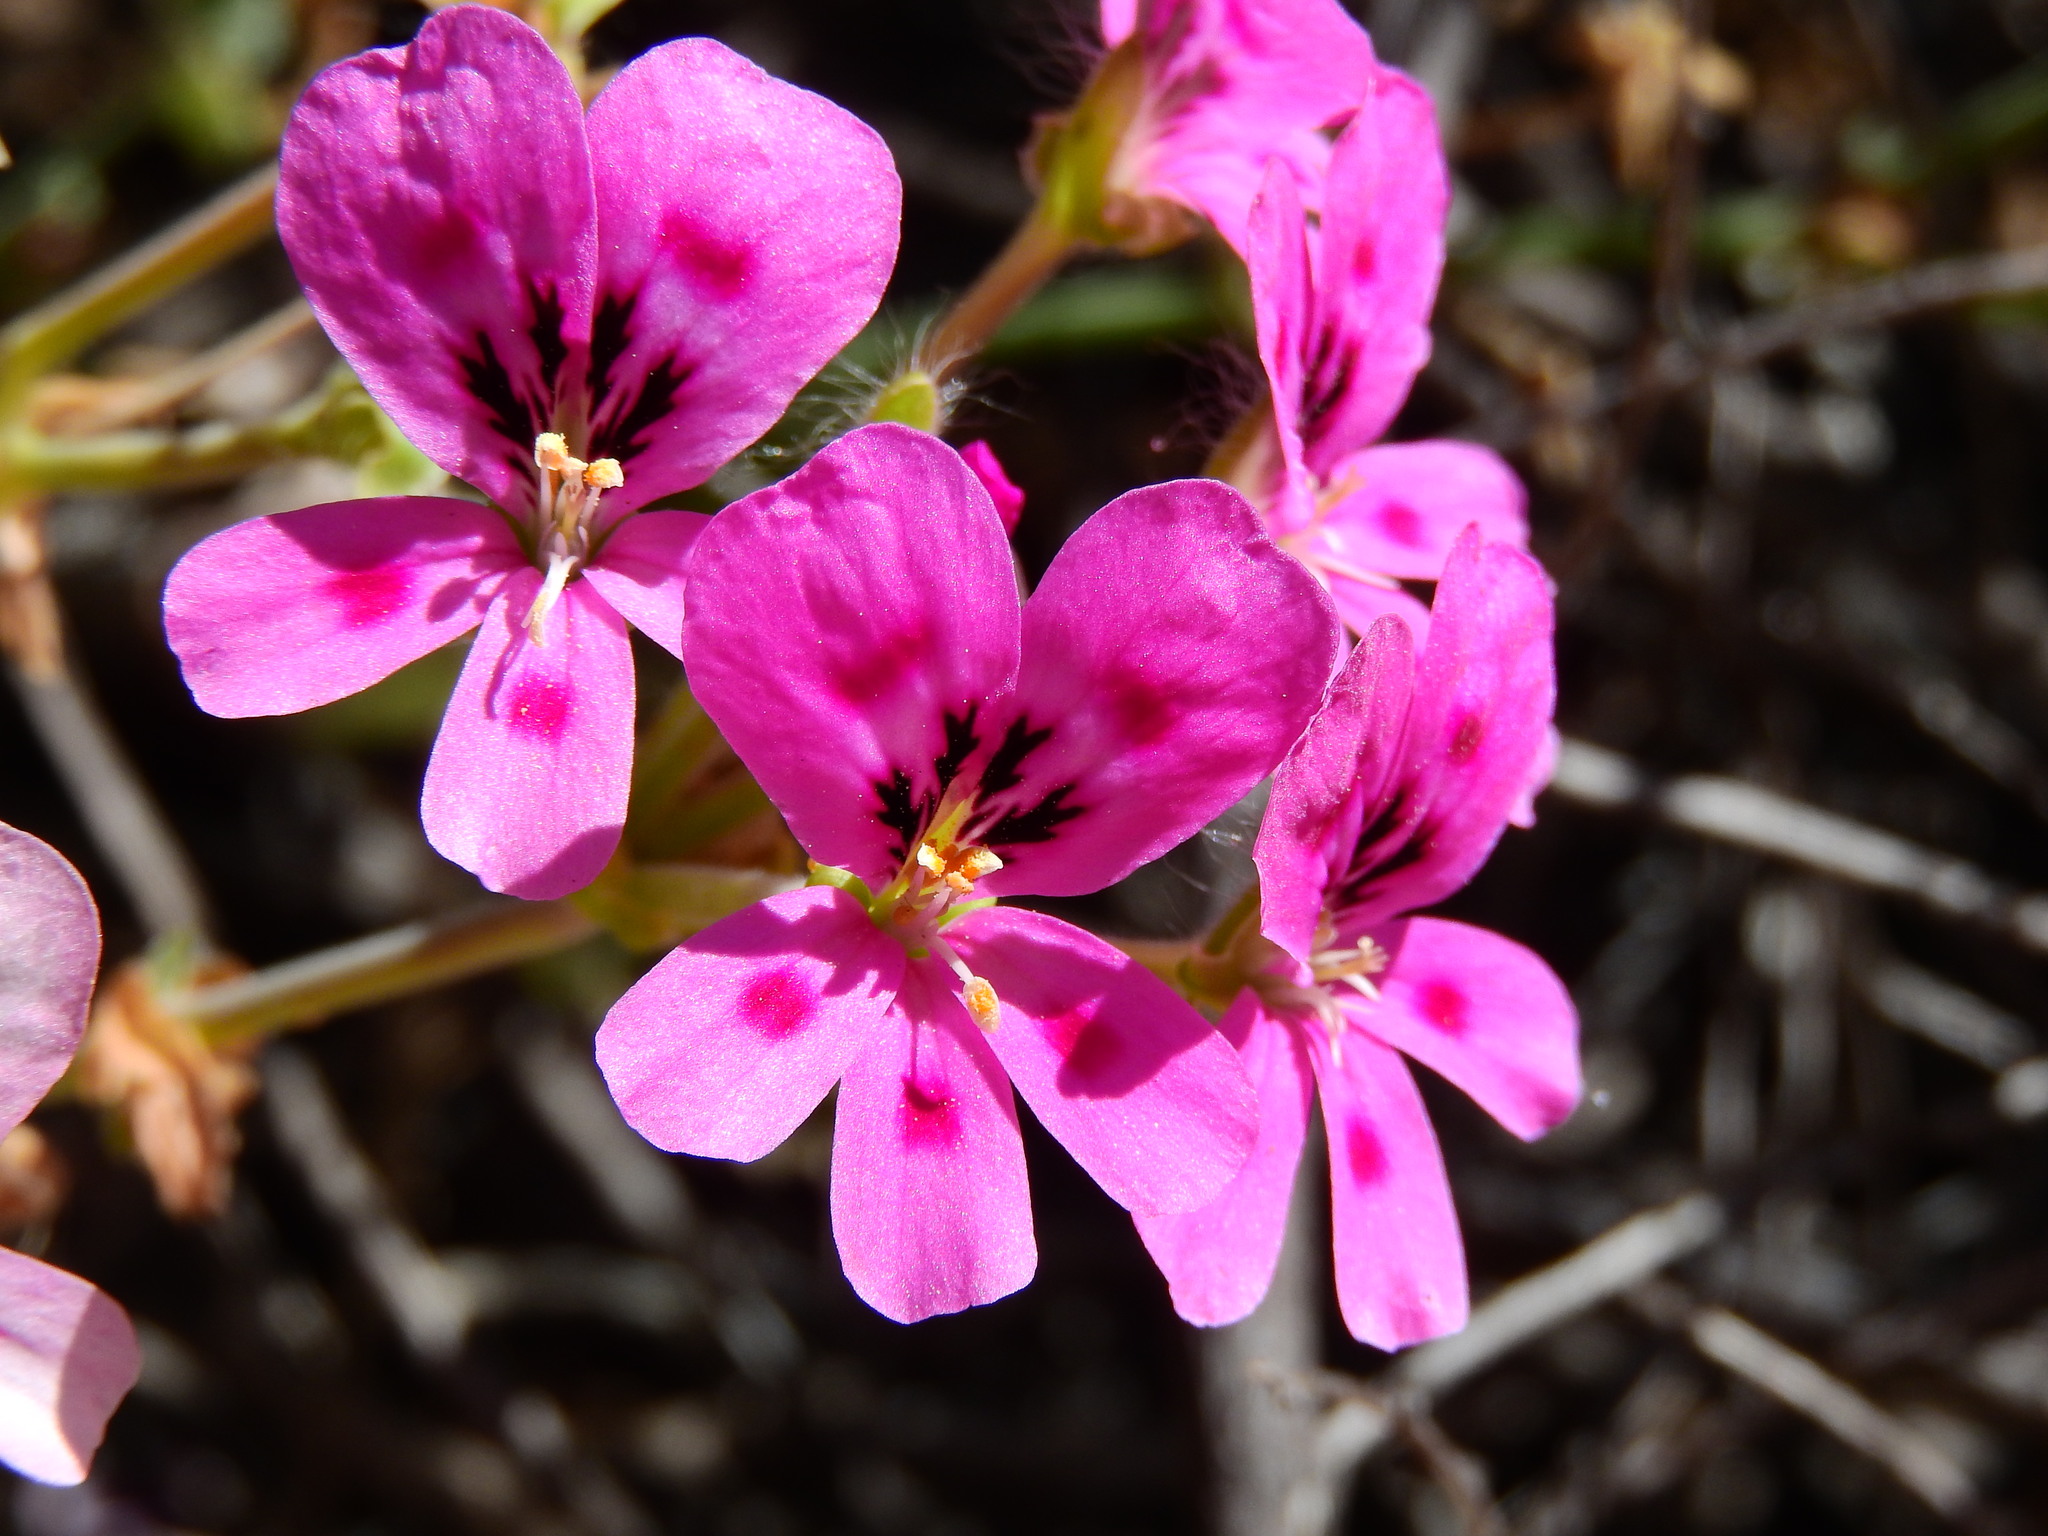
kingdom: Plantae
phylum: Tracheophyta
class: Magnoliopsida
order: Geraniales
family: Geraniaceae
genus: Pelargonium
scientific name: Pelargonium echinatum
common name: Cactus geranium
